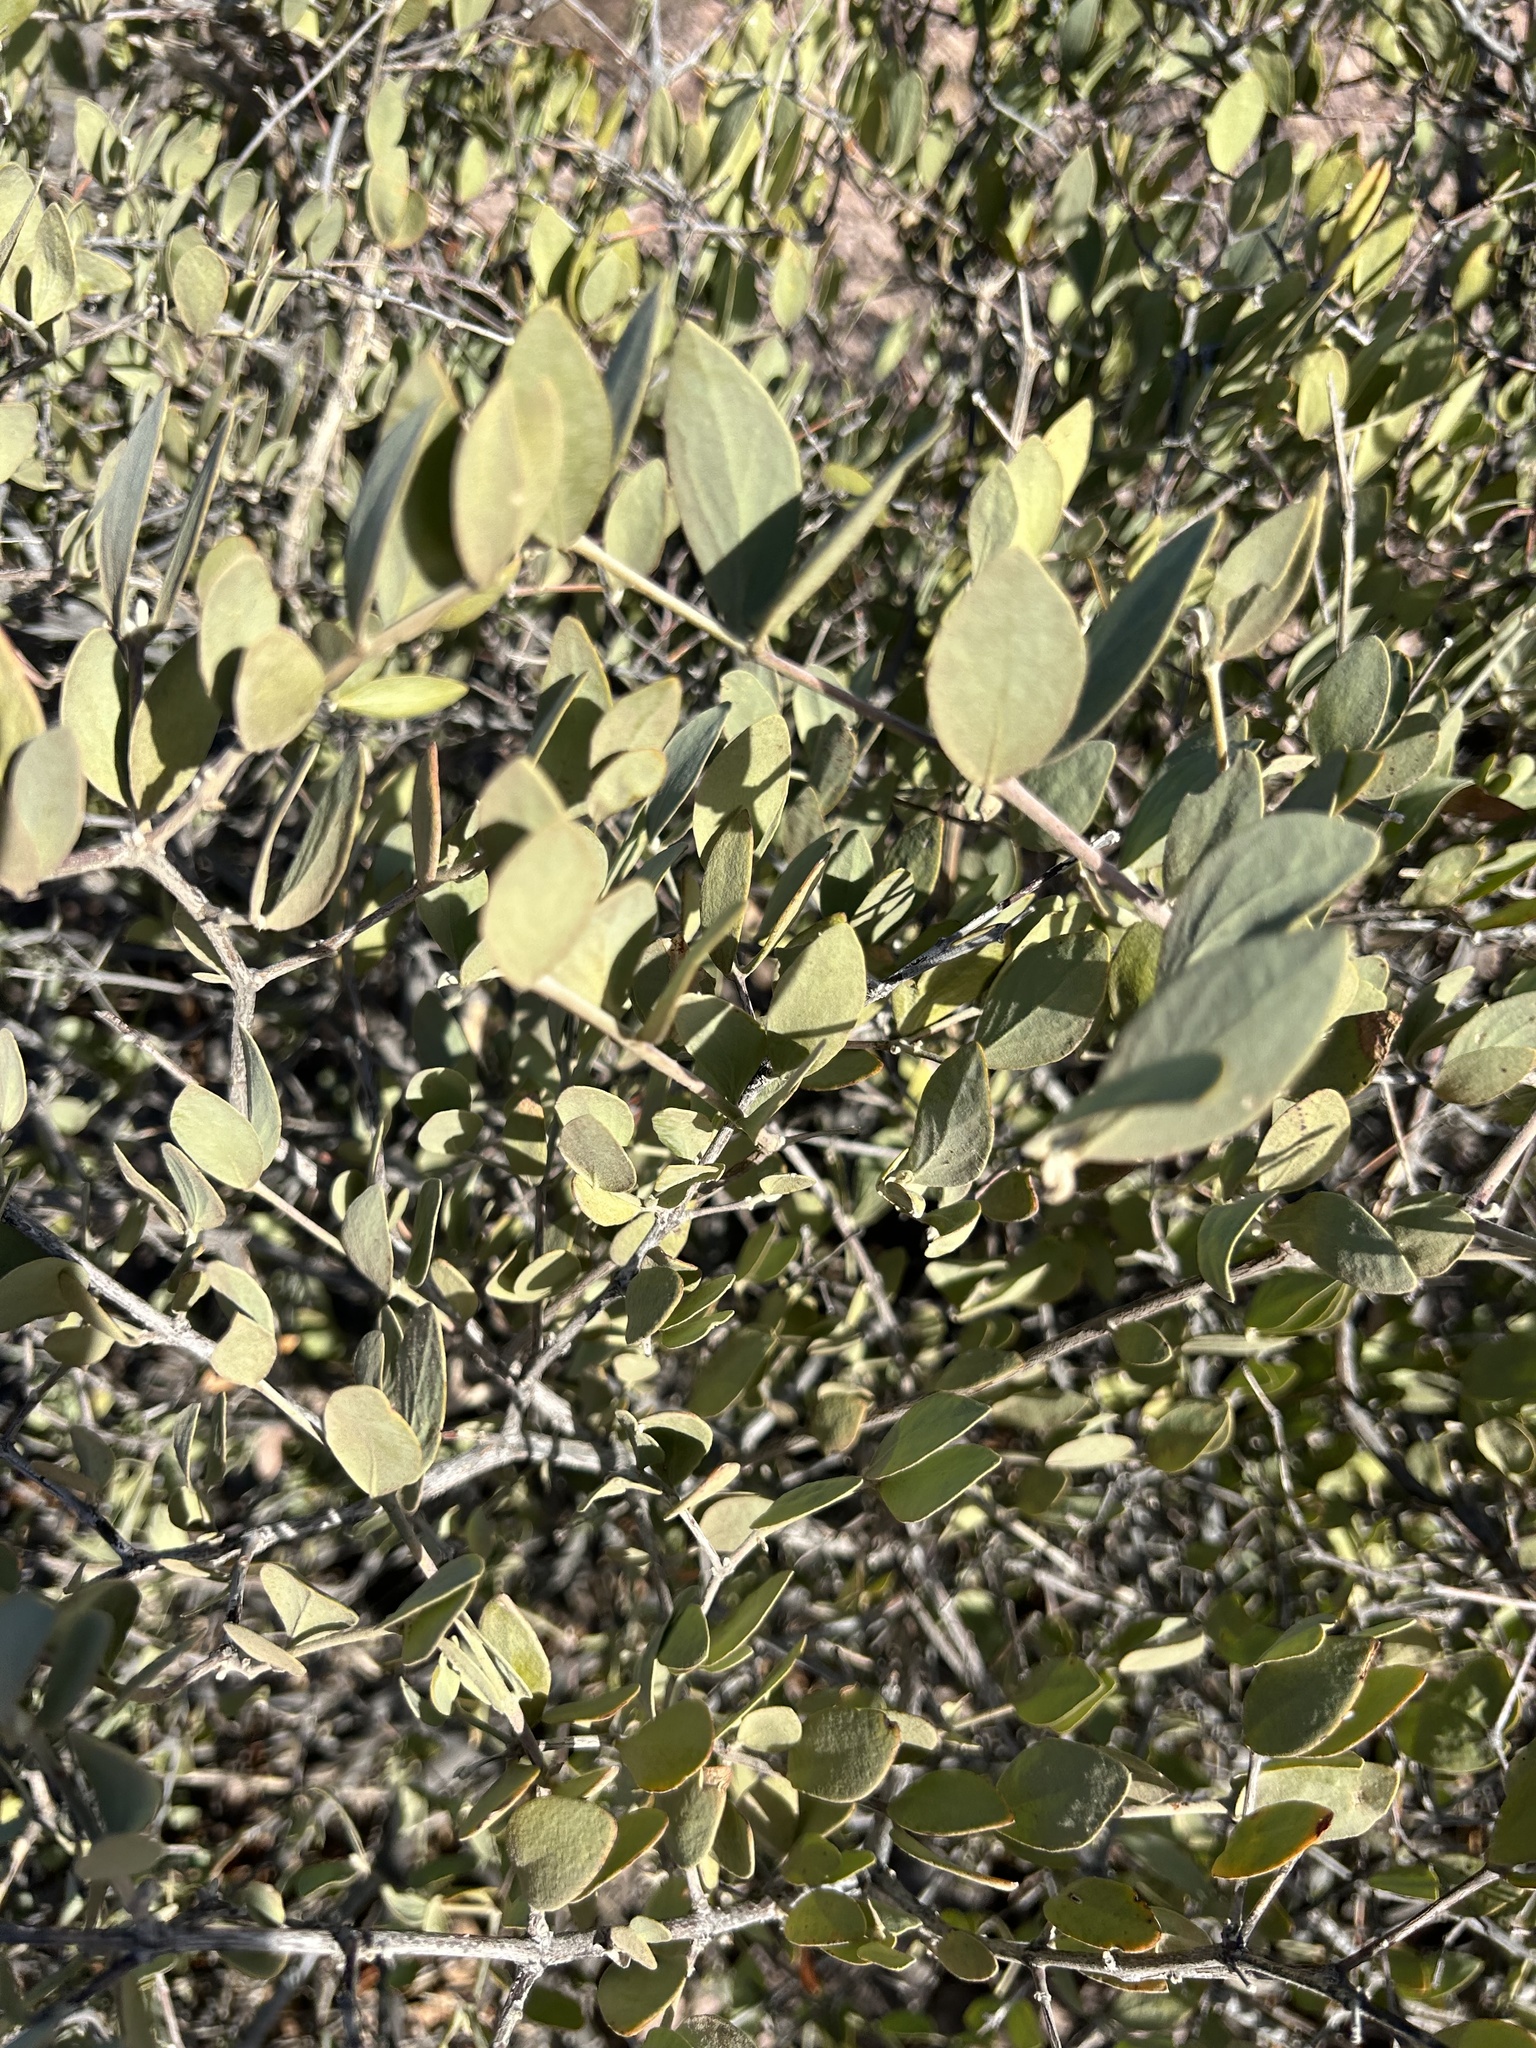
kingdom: Plantae
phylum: Tracheophyta
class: Magnoliopsida
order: Caryophyllales
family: Simmondsiaceae
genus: Simmondsia
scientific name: Simmondsia chinensis
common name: Jojoba
